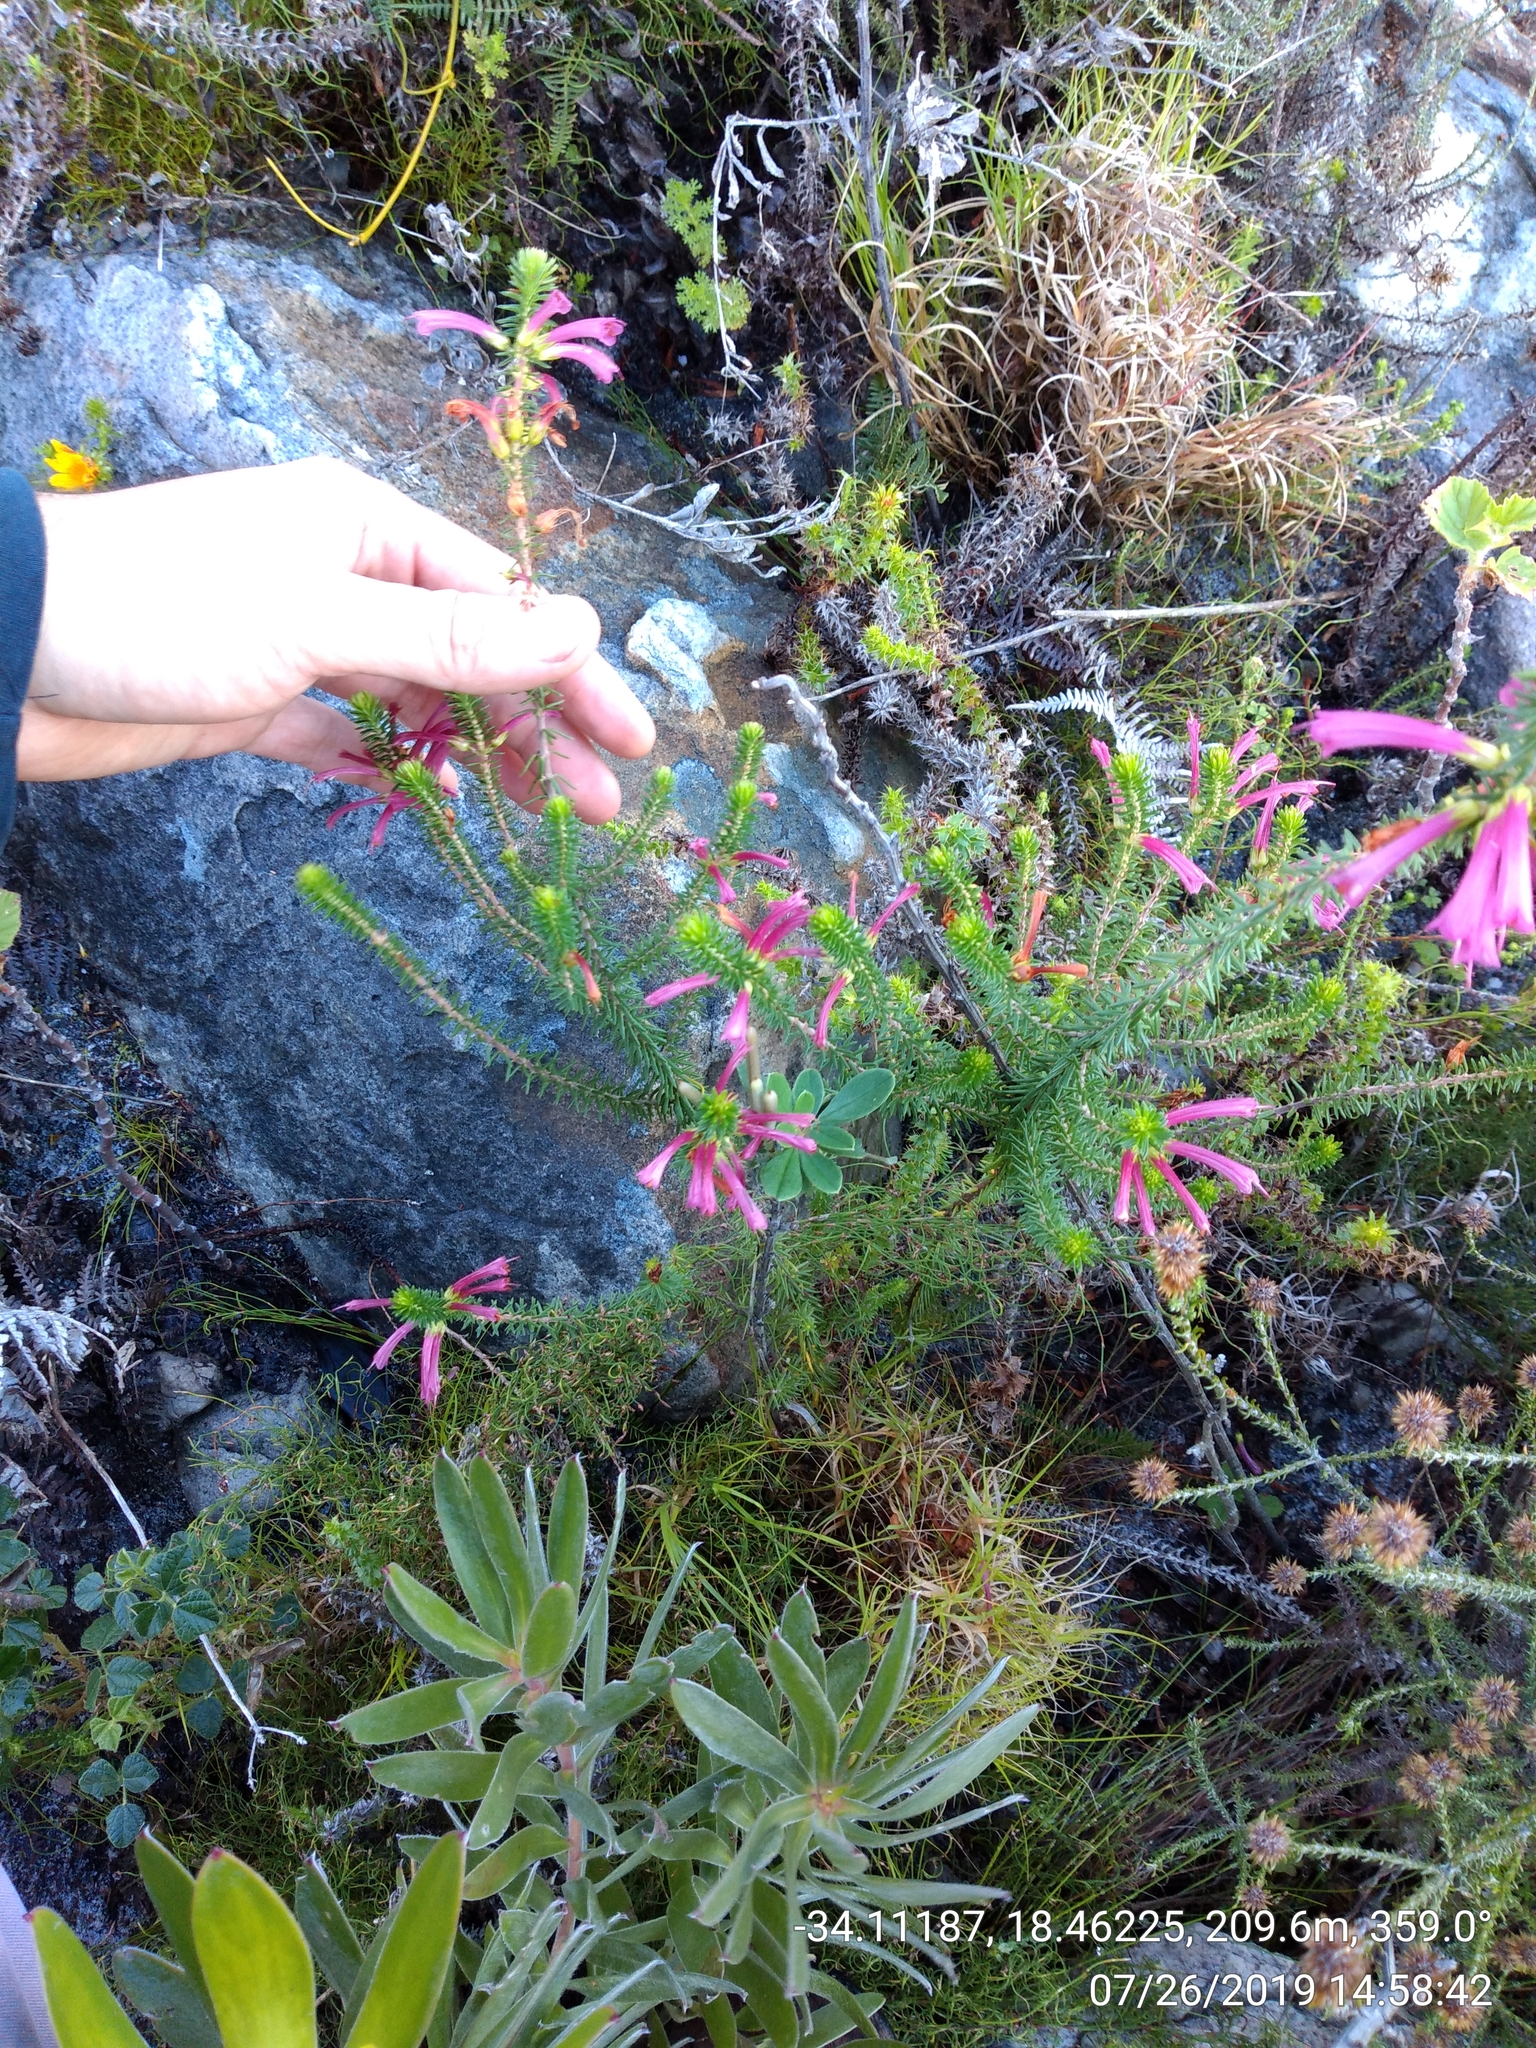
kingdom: Plantae
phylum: Tracheophyta
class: Magnoliopsida
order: Ericales
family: Ericaceae
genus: Erica
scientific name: Erica abietina
